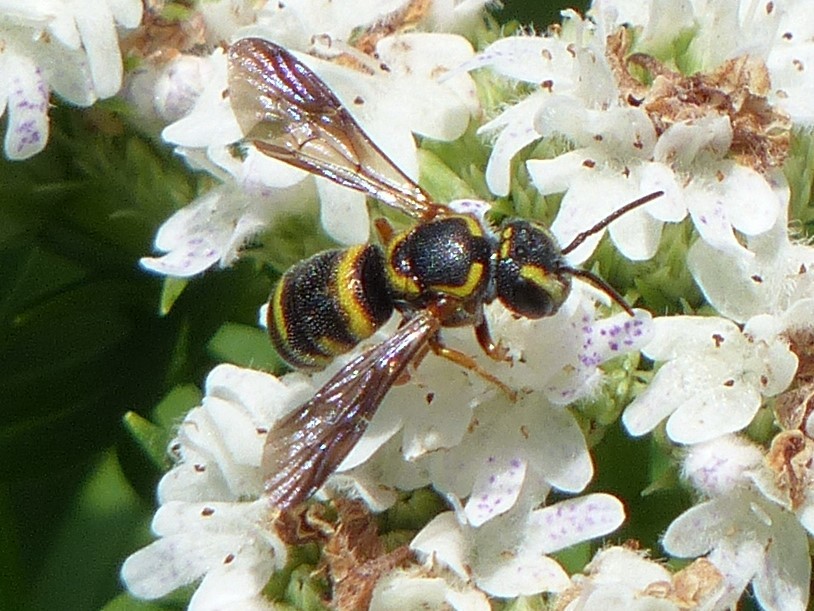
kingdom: Animalia
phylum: Arthropoda
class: Insecta
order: Hymenoptera
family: Megachilidae
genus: Stelis
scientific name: Stelis louisae
